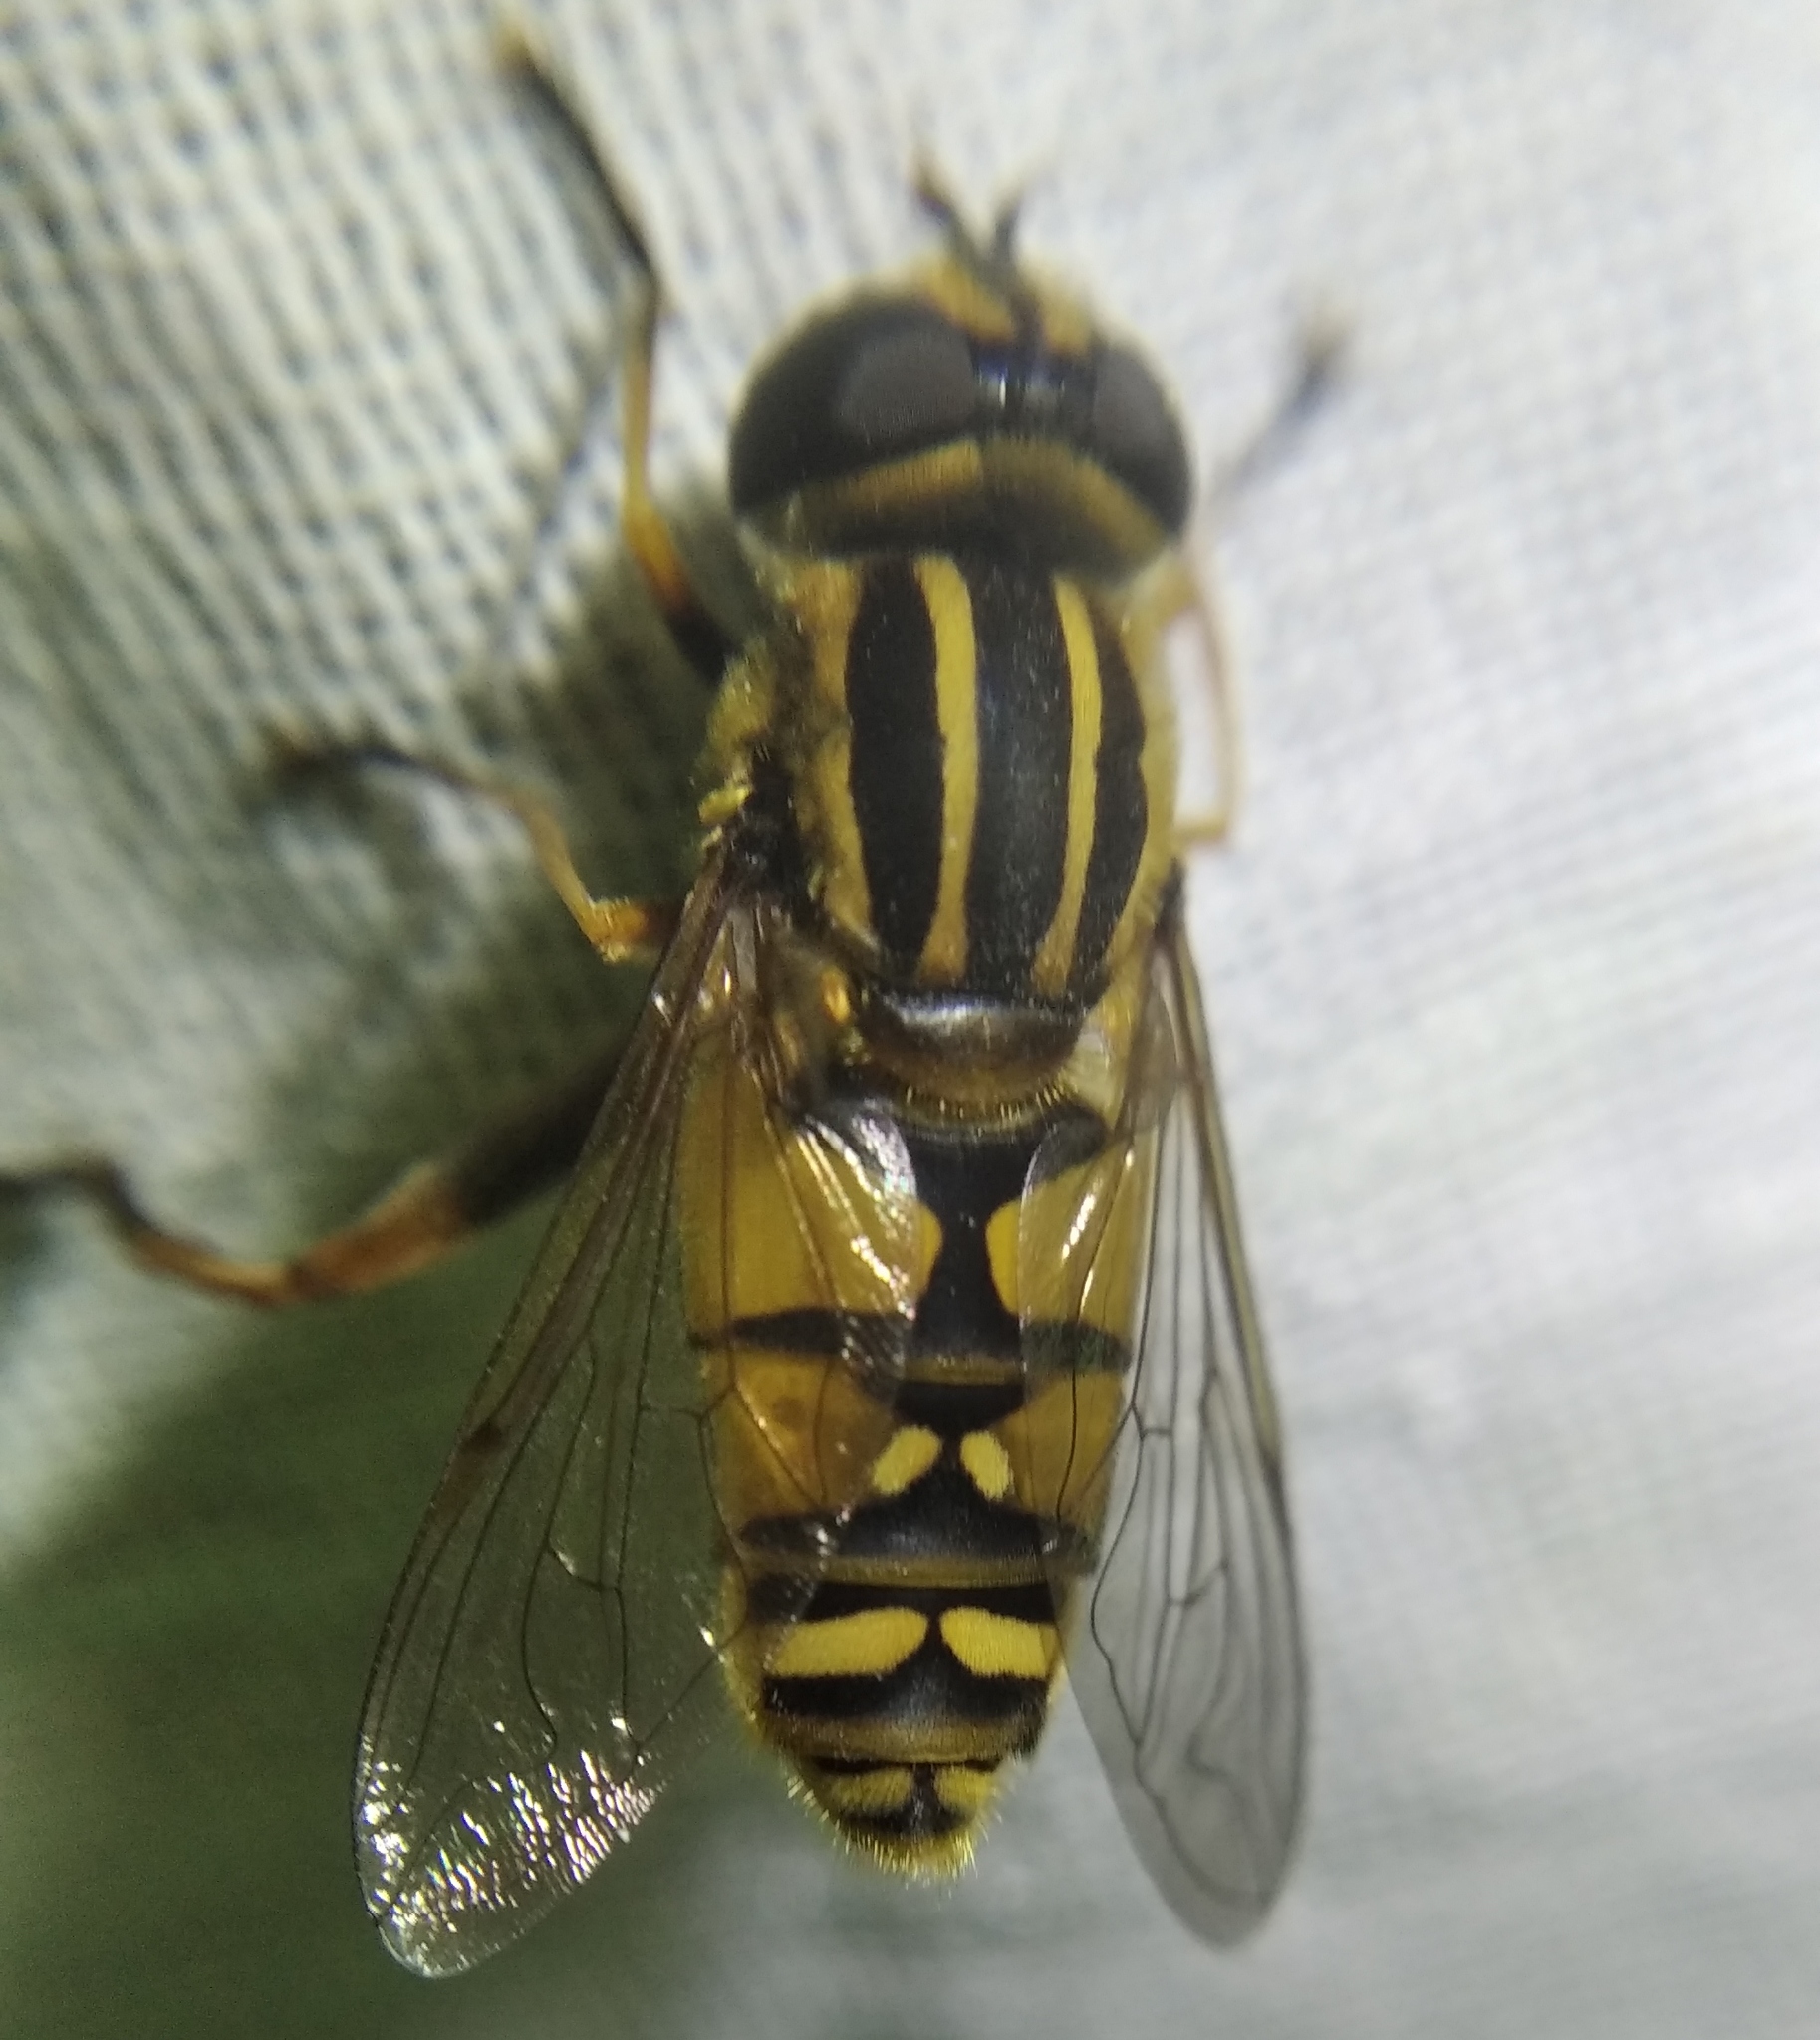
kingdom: Animalia
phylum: Arthropoda
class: Insecta
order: Diptera
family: Syrphidae
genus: Helophilus
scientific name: Helophilus pendulus
